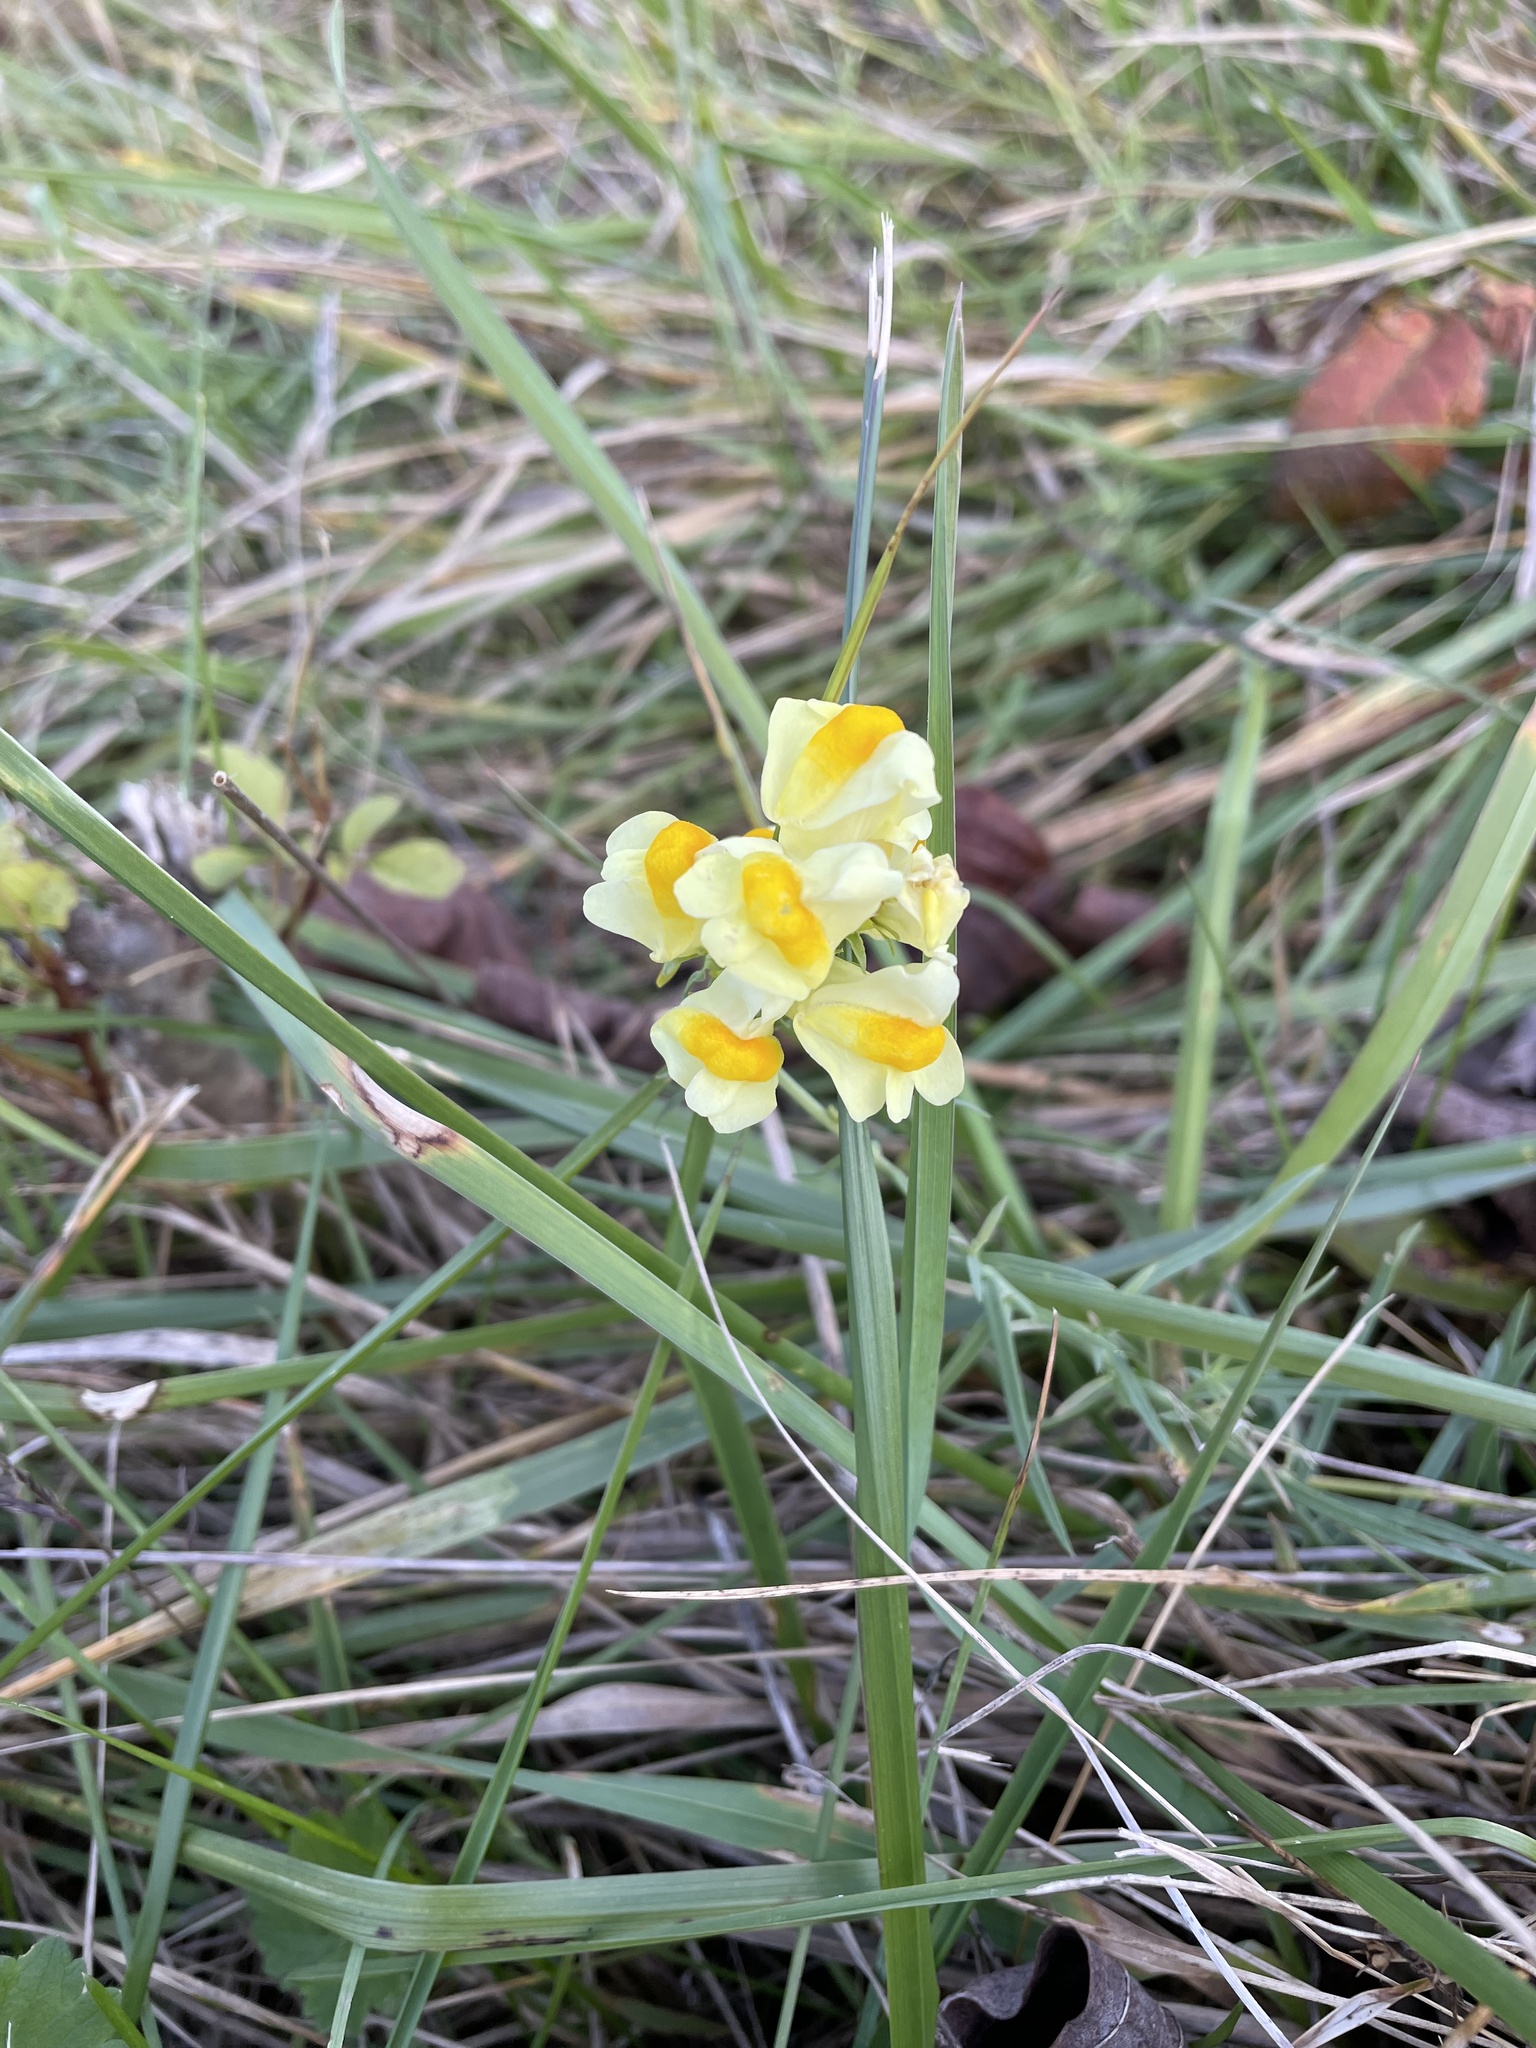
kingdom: Plantae
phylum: Tracheophyta
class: Magnoliopsida
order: Lamiales
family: Plantaginaceae
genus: Linaria
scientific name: Linaria vulgaris
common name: Butter and eggs
